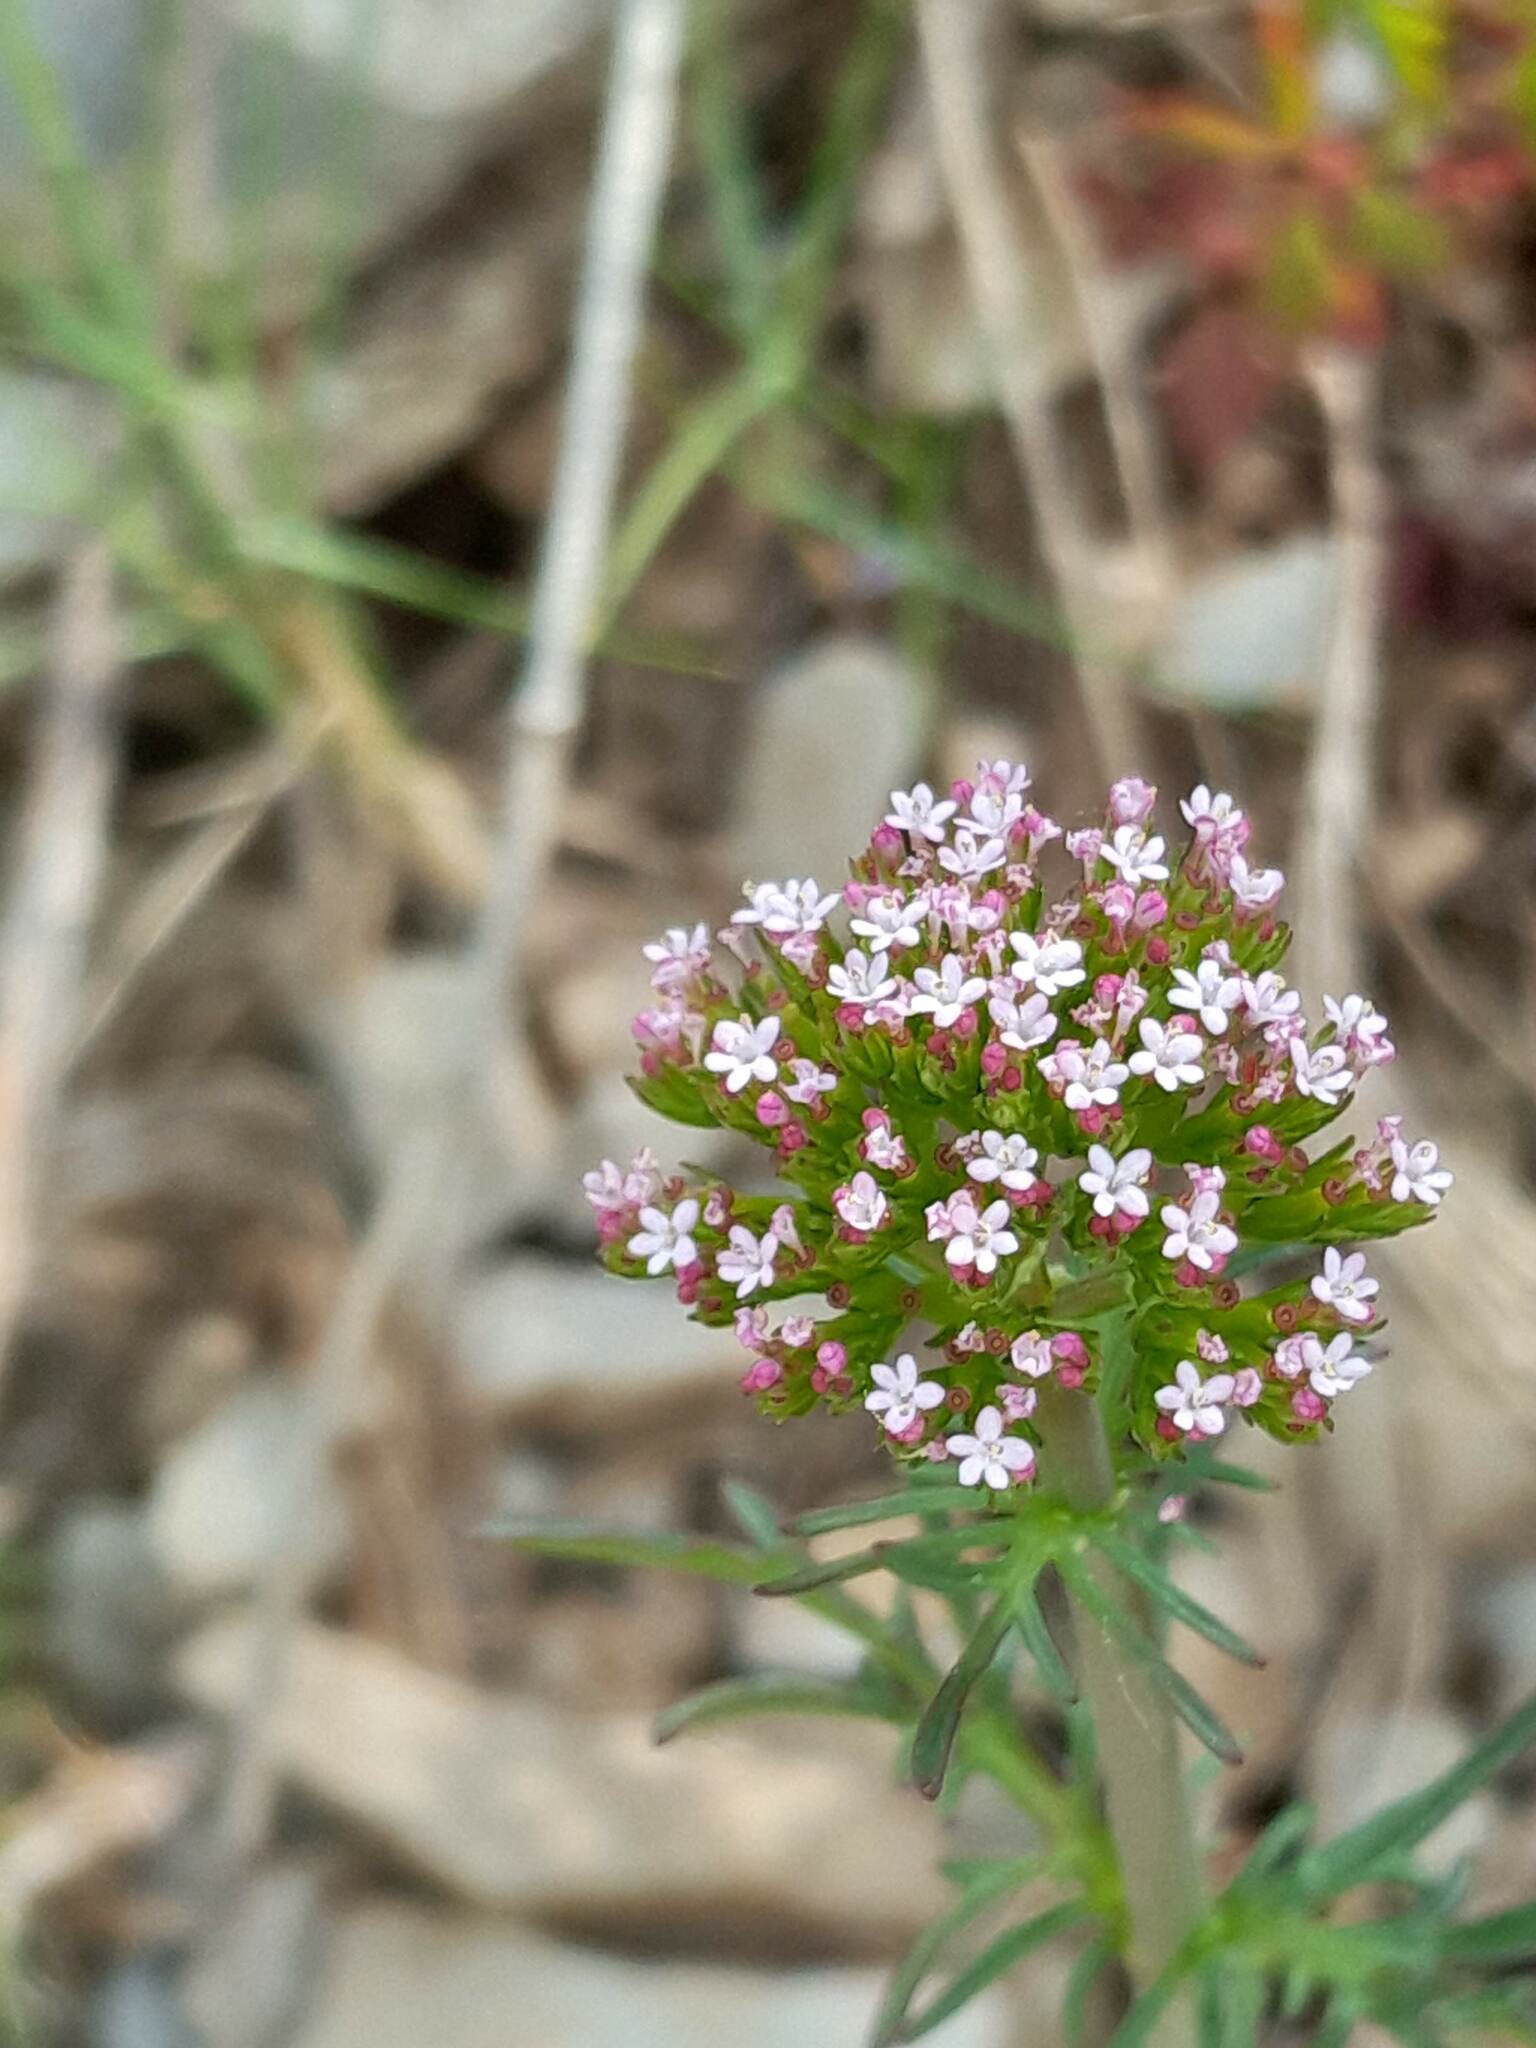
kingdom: Plantae
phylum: Tracheophyta
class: Magnoliopsida
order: Dipsacales
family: Caprifoliaceae
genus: Centranthus
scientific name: Centranthus calcitrapae
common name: Annual valerian
